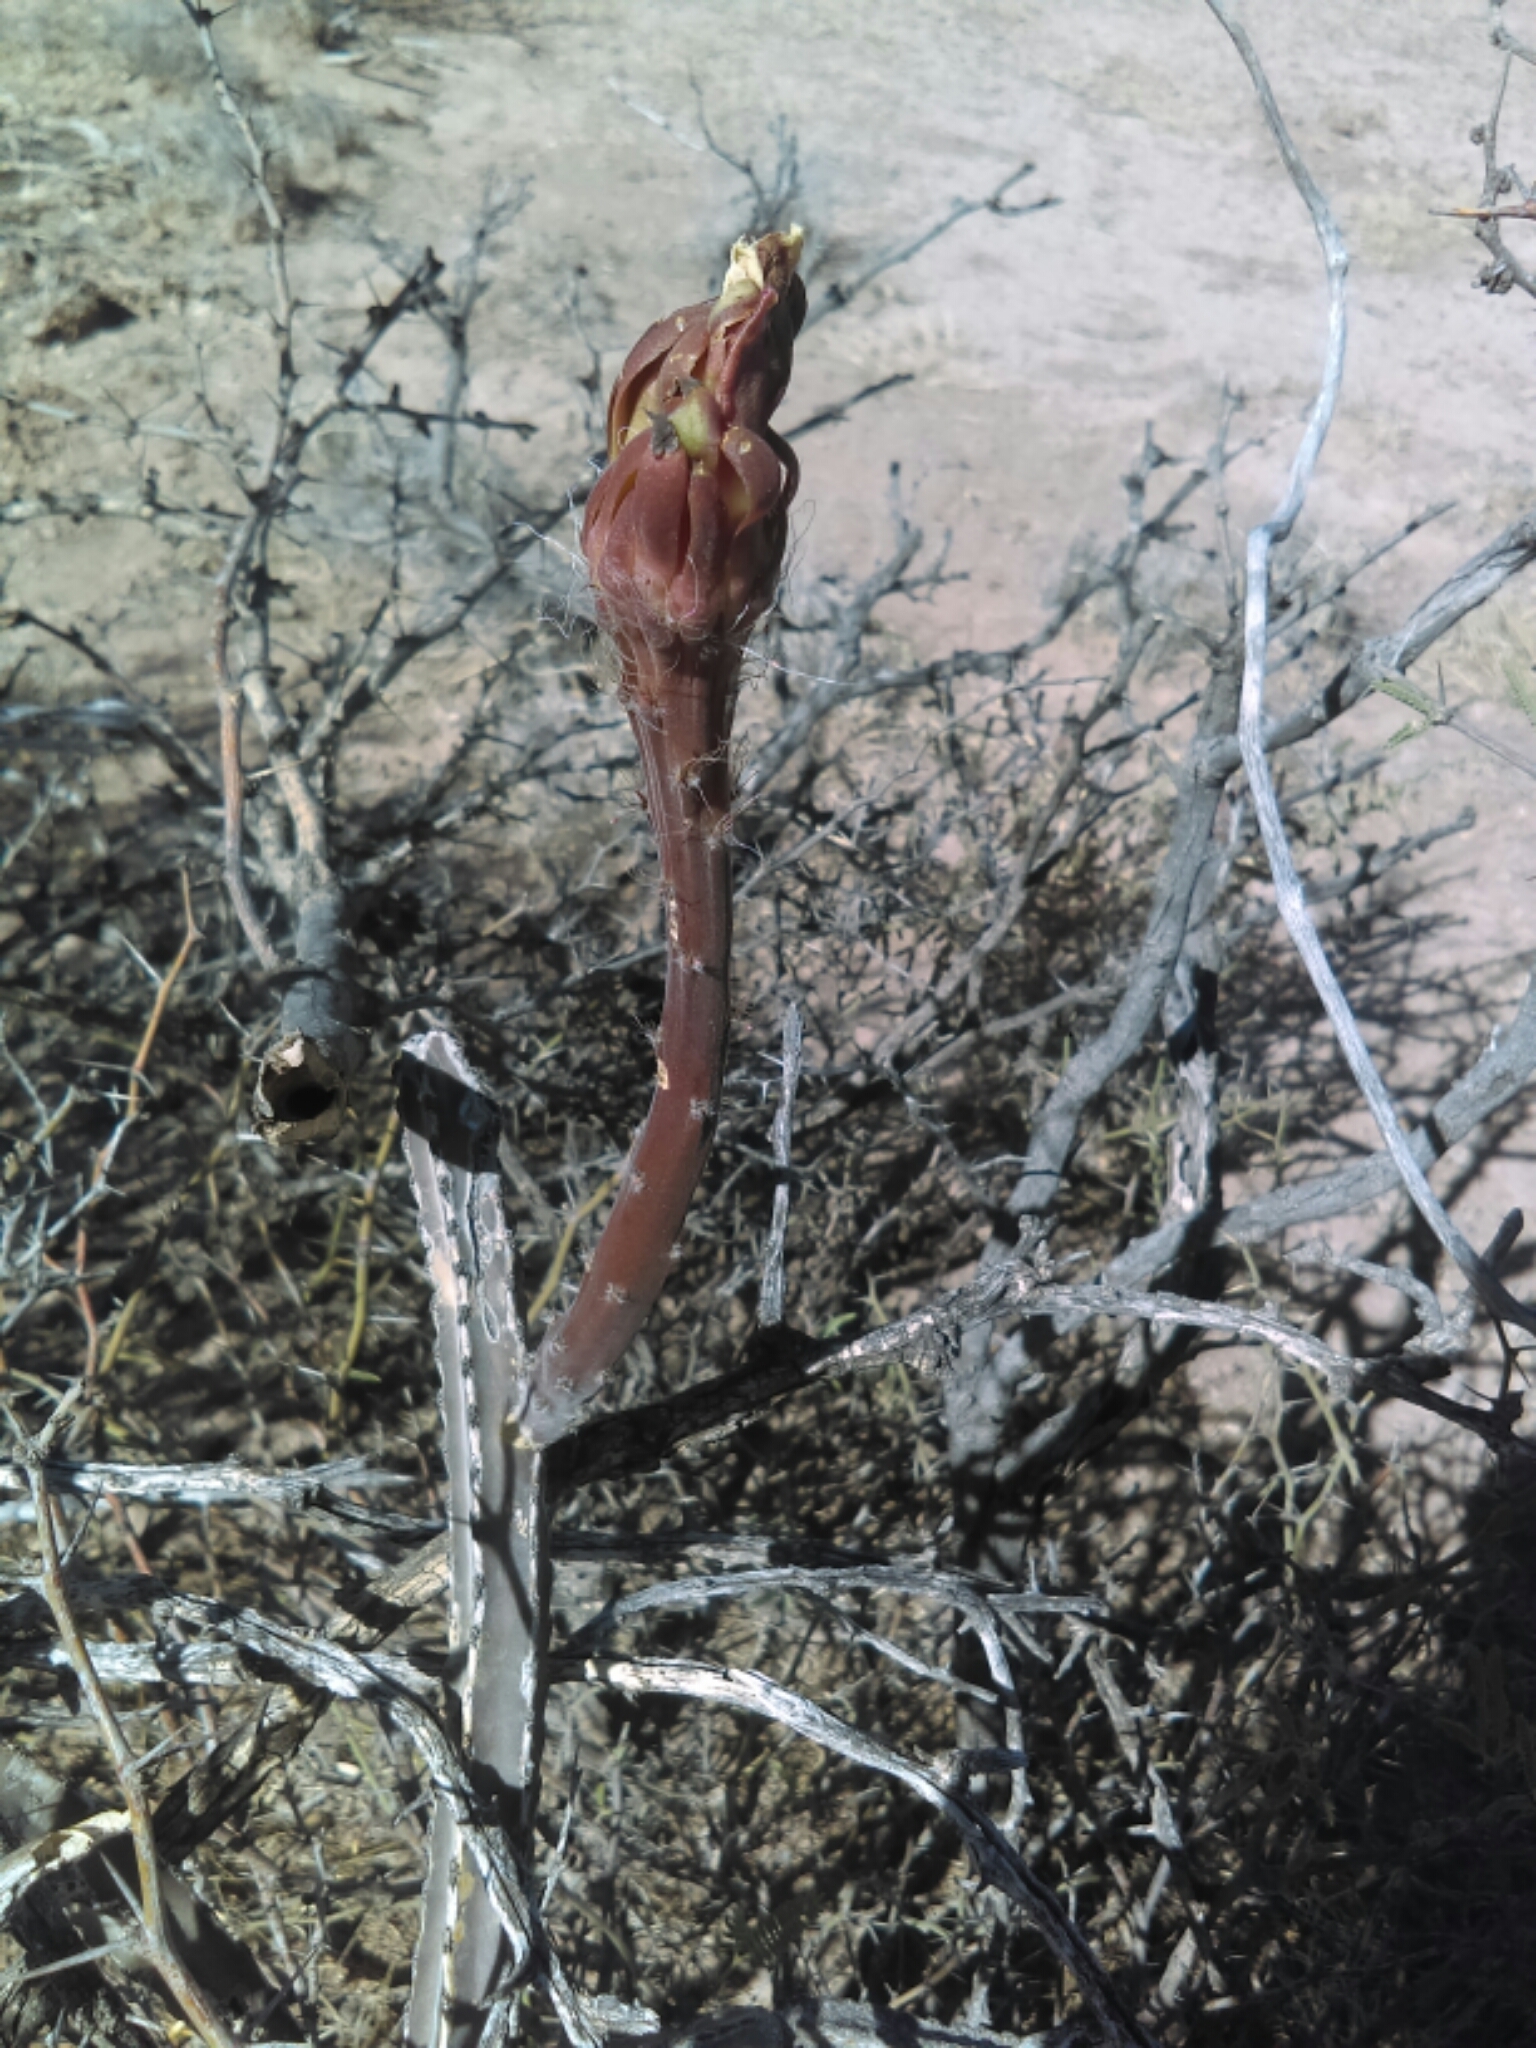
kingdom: Plantae
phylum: Tracheophyta
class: Magnoliopsida
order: Caryophyllales
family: Cactaceae
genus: Peniocereus
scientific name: Peniocereus greggii
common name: Desert night-blooming cereus
